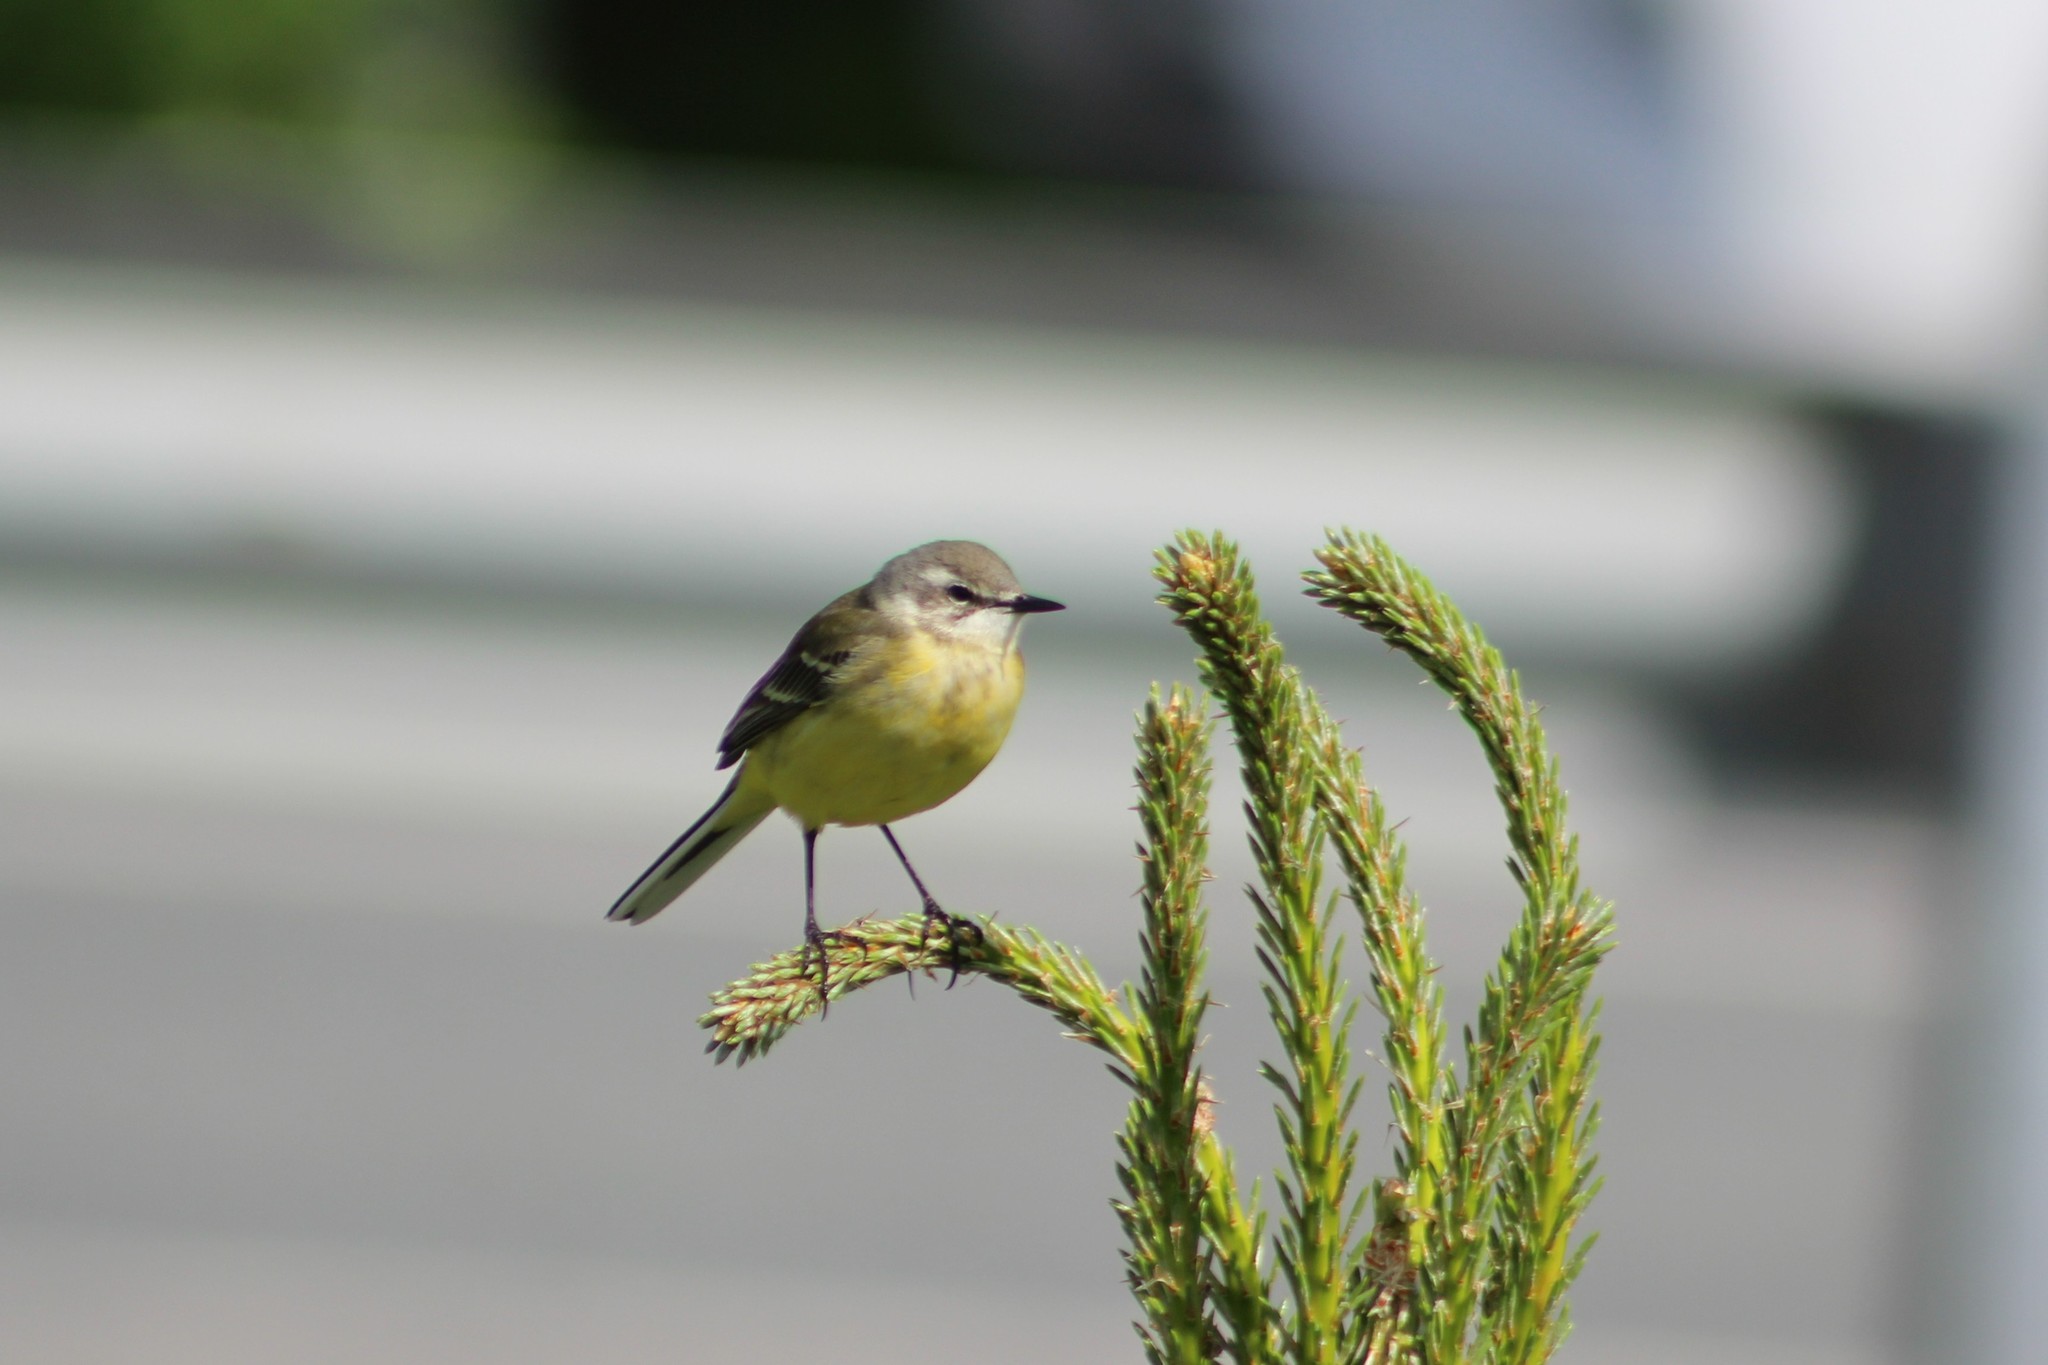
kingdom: Animalia
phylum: Chordata
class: Aves
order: Passeriformes
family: Motacillidae
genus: Motacilla
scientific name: Motacilla flava
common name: Western yellow wagtail
